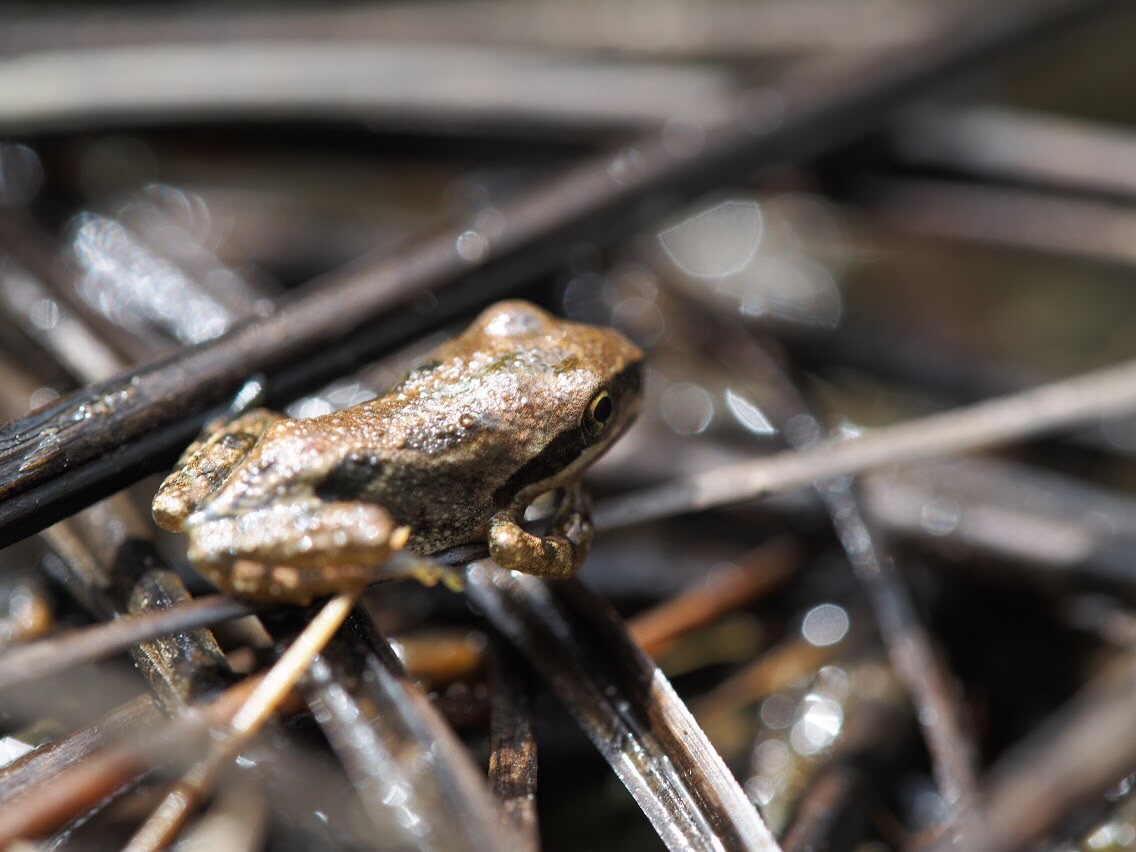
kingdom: Animalia
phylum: Chordata
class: Amphibia
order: Anura
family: Hylidae
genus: Pseudacris
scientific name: Pseudacris regilla
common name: Pacific chorus frog
